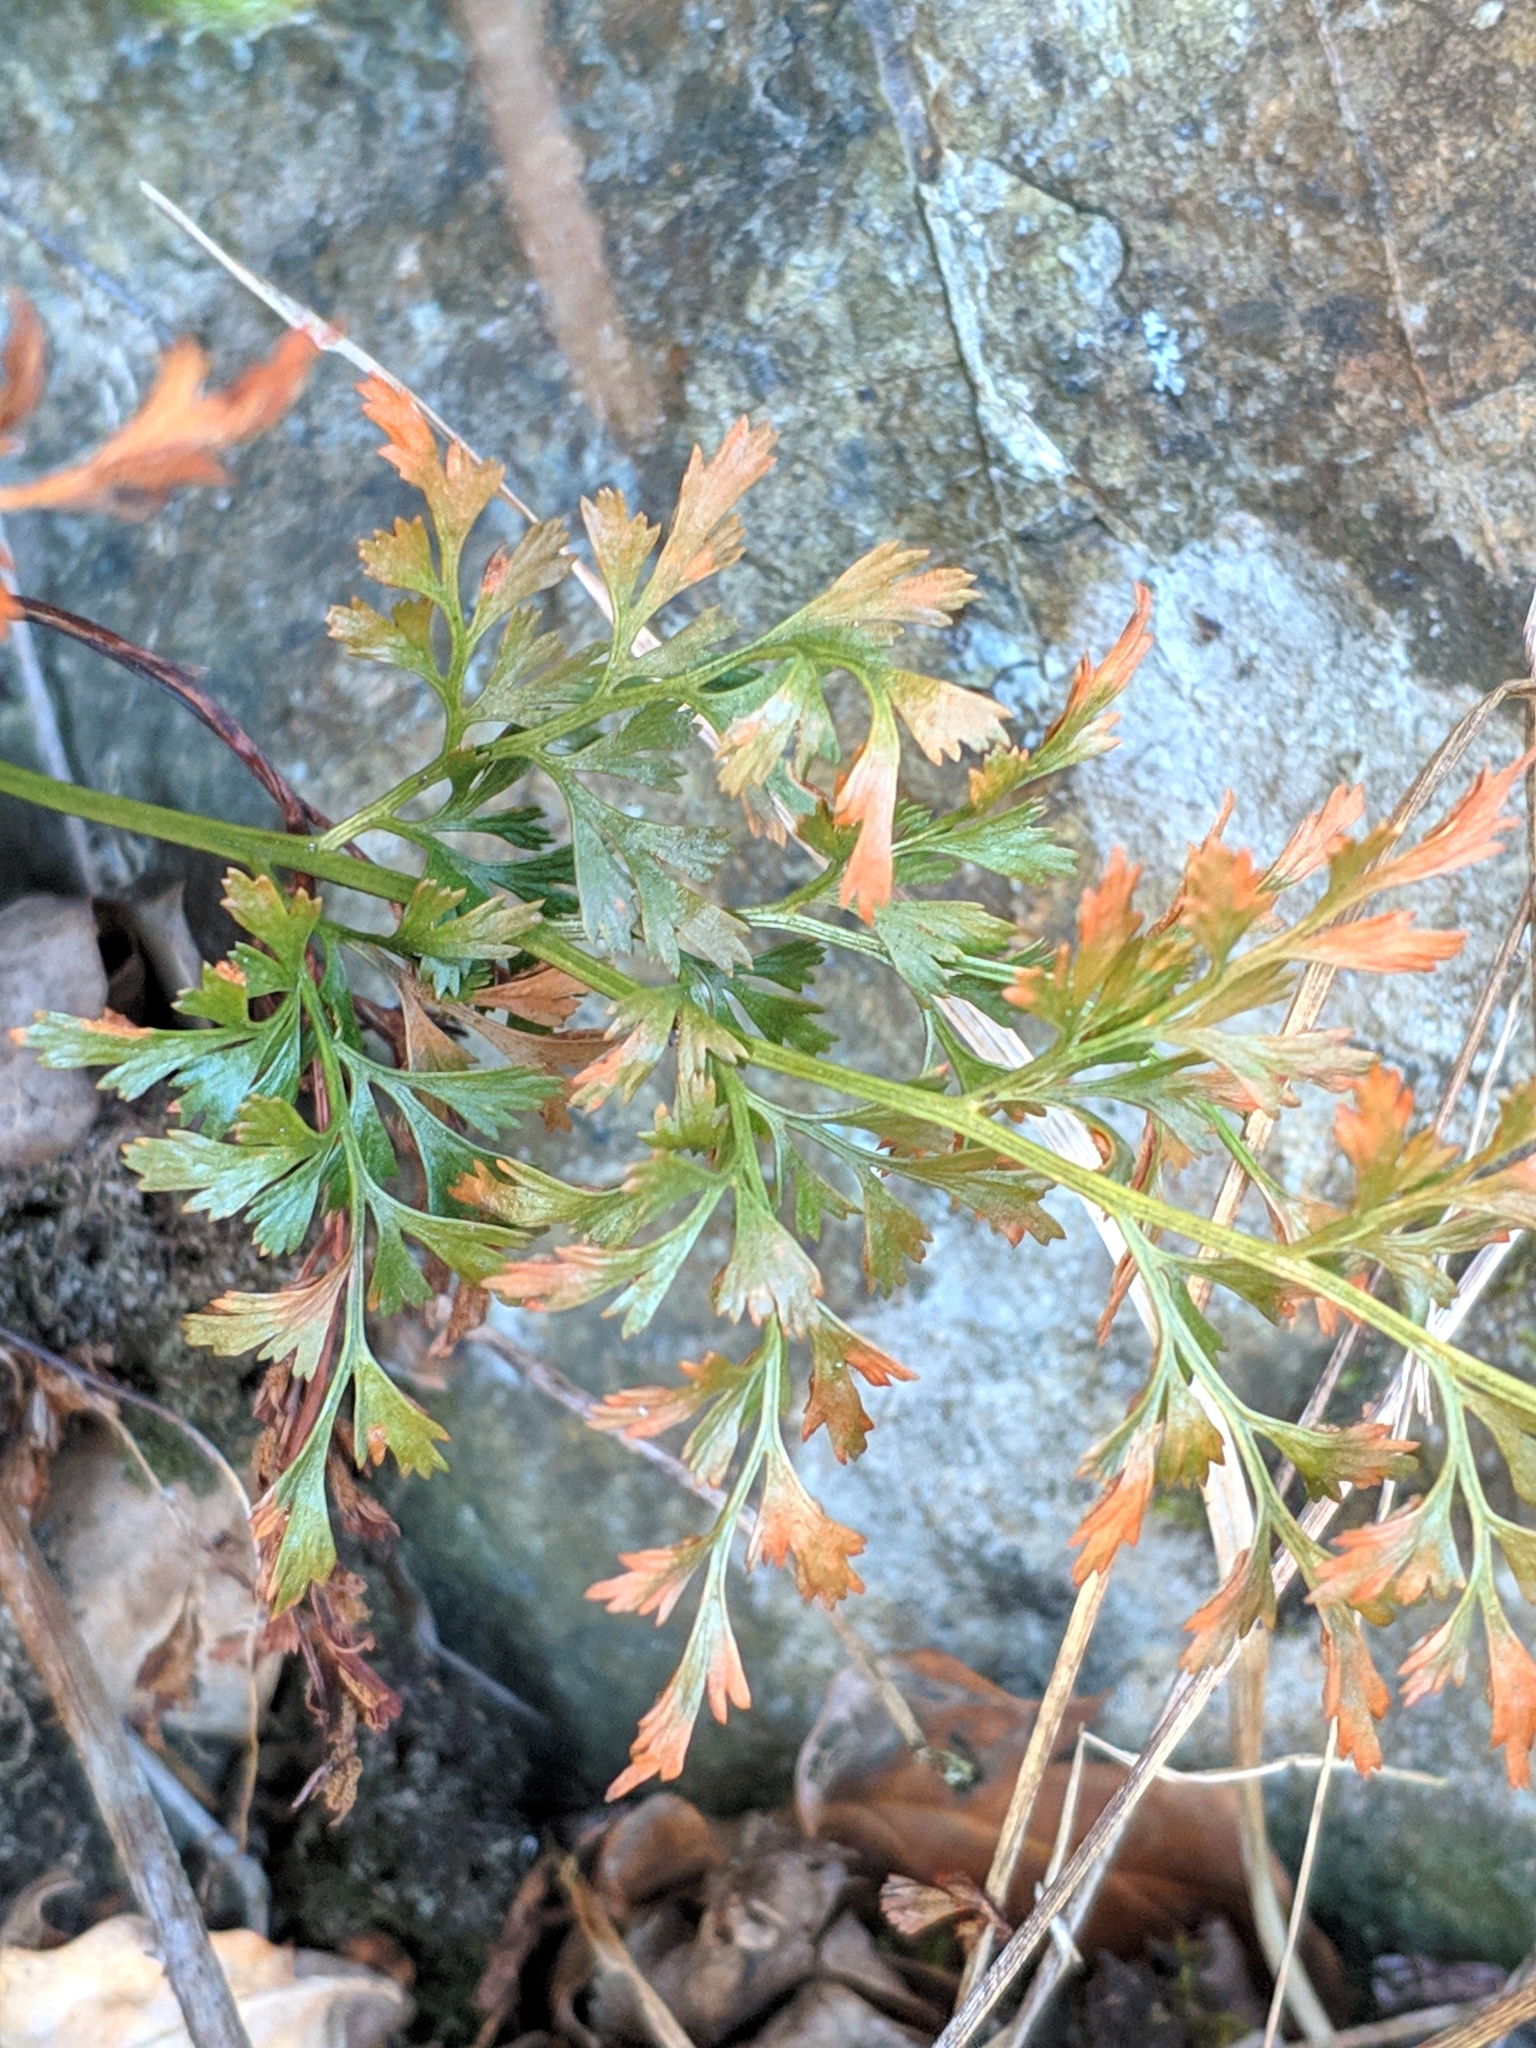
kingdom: Plantae
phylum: Tracheophyta
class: Polypodiopsida
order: Polypodiales
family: Aspleniaceae
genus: Asplenium
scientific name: Asplenium cuneifolium
